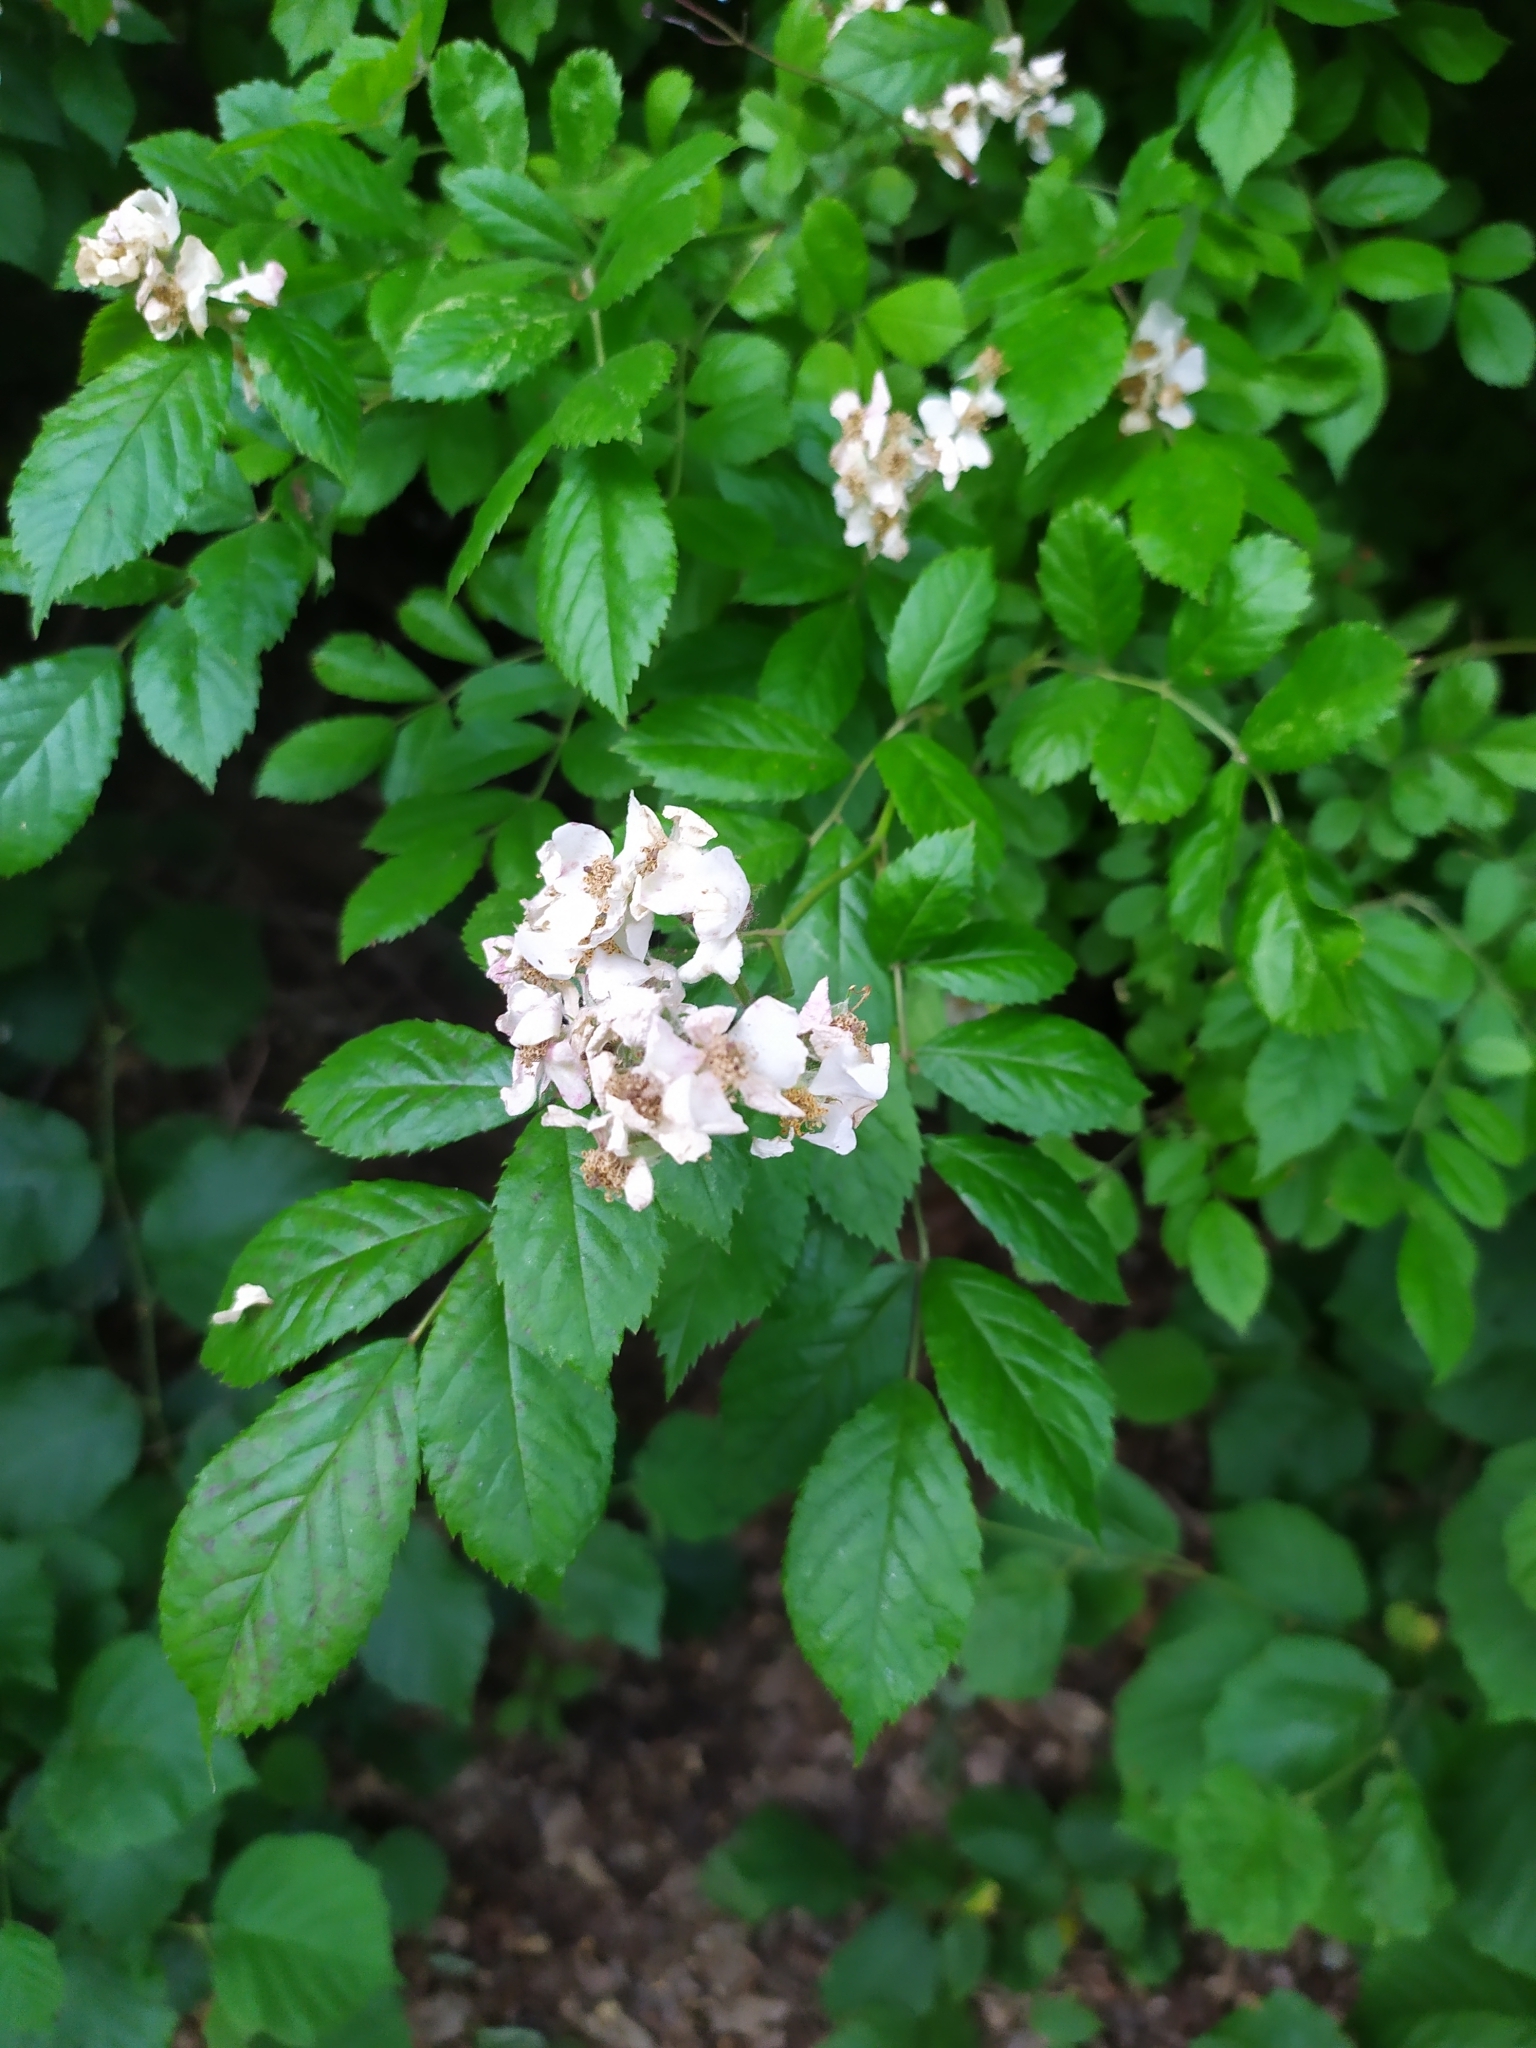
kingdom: Plantae
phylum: Tracheophyta
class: Magnoliopsida
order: Rosales
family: Rosaceae
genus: Rosa
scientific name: Rosa multiflora
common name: Multiflora rose
